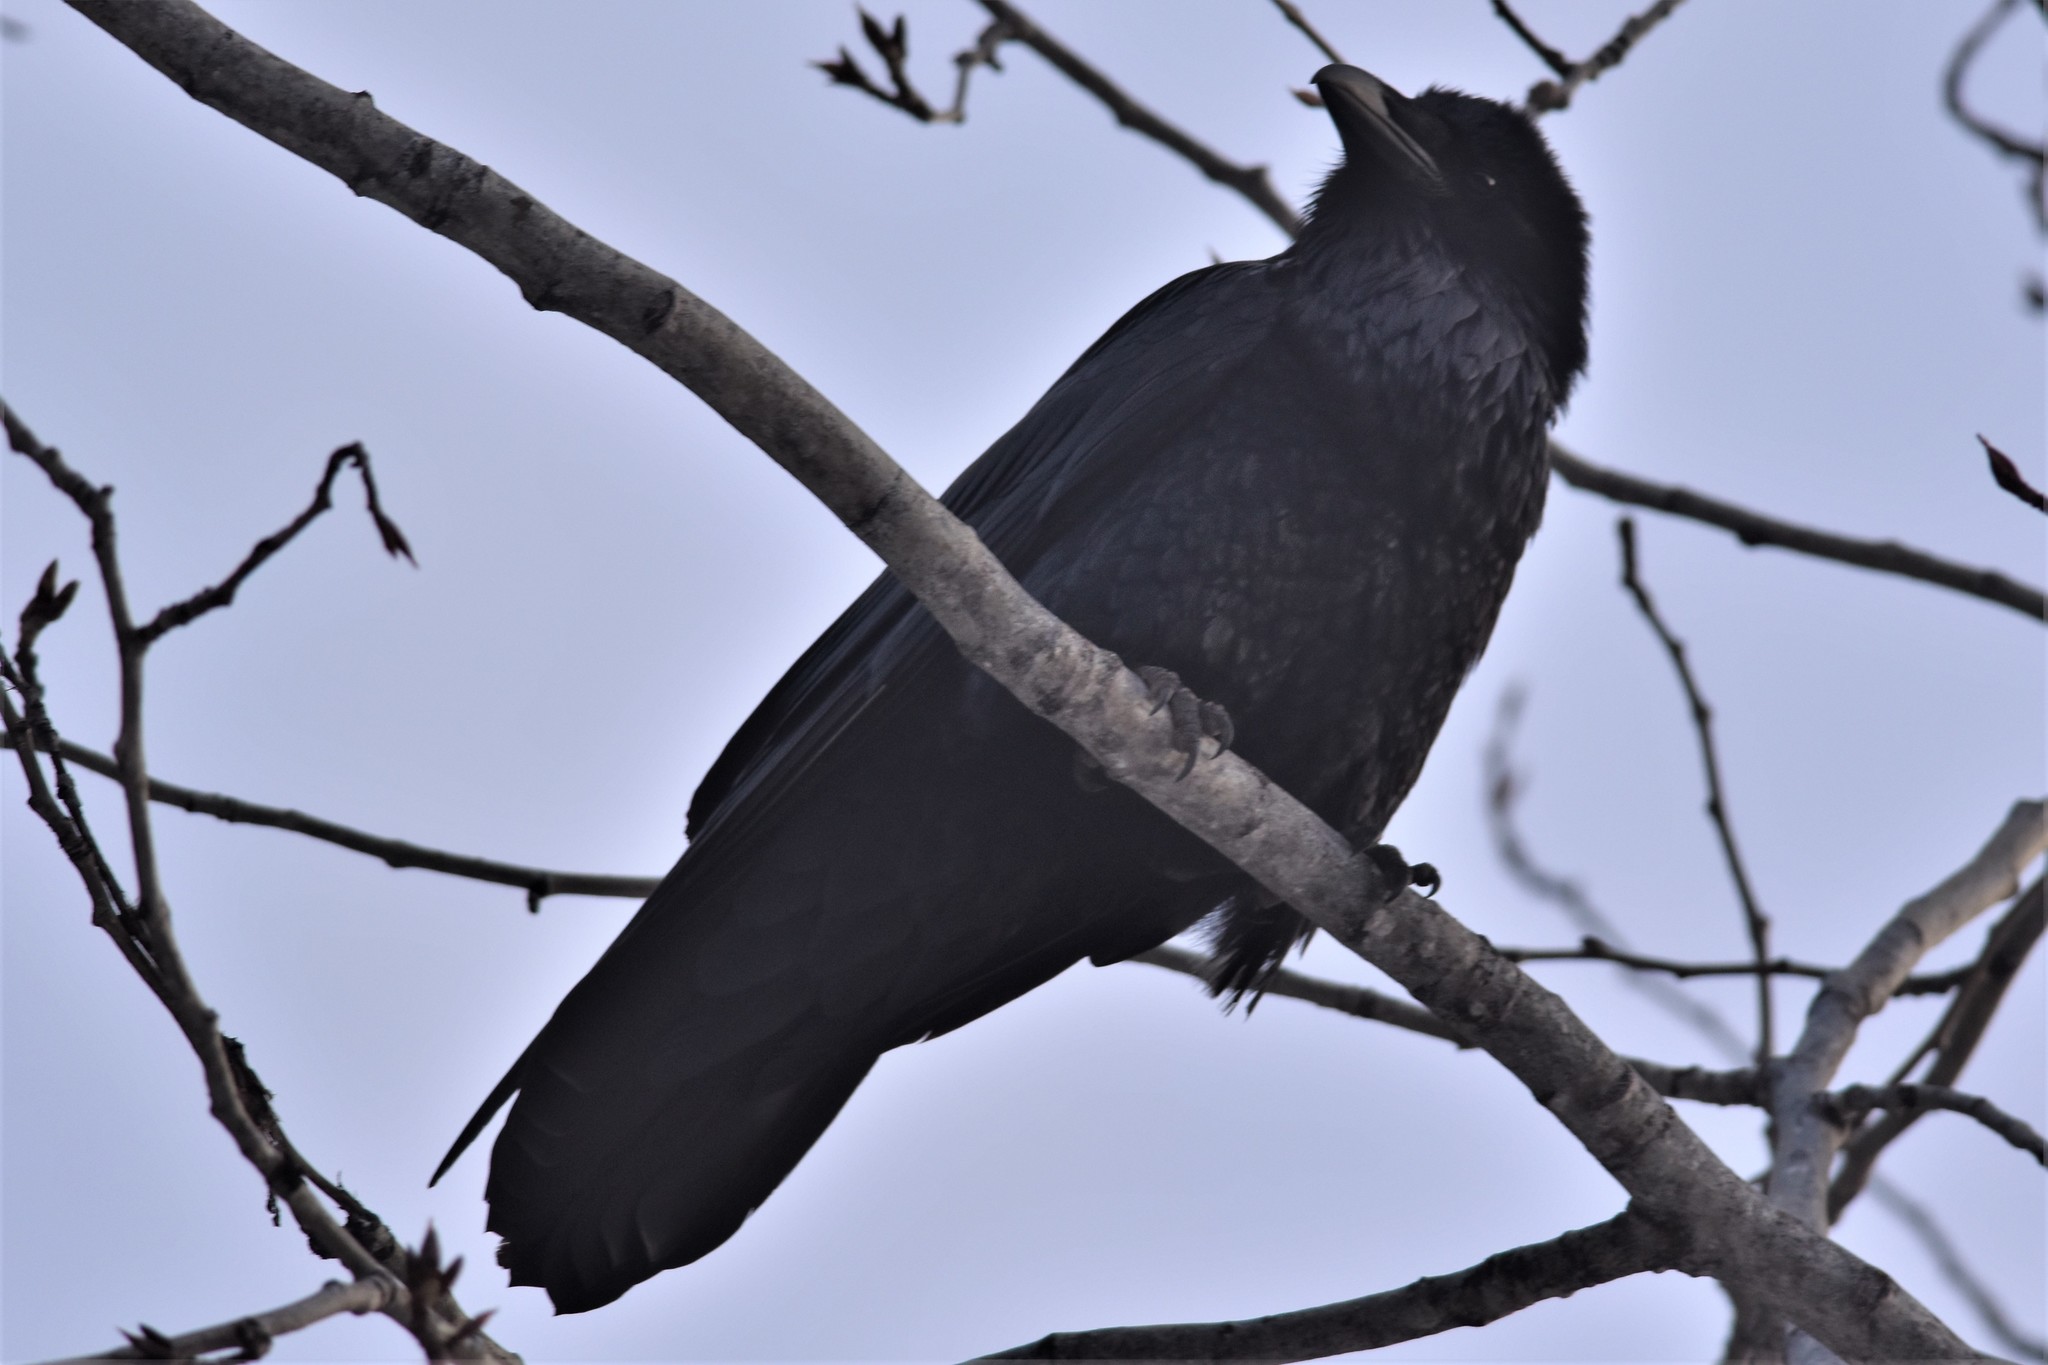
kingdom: Animalia
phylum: Chordata
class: Aves
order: Passeriformes
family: Corvidae
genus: Corvus
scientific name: Corvus corax
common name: Common raven
